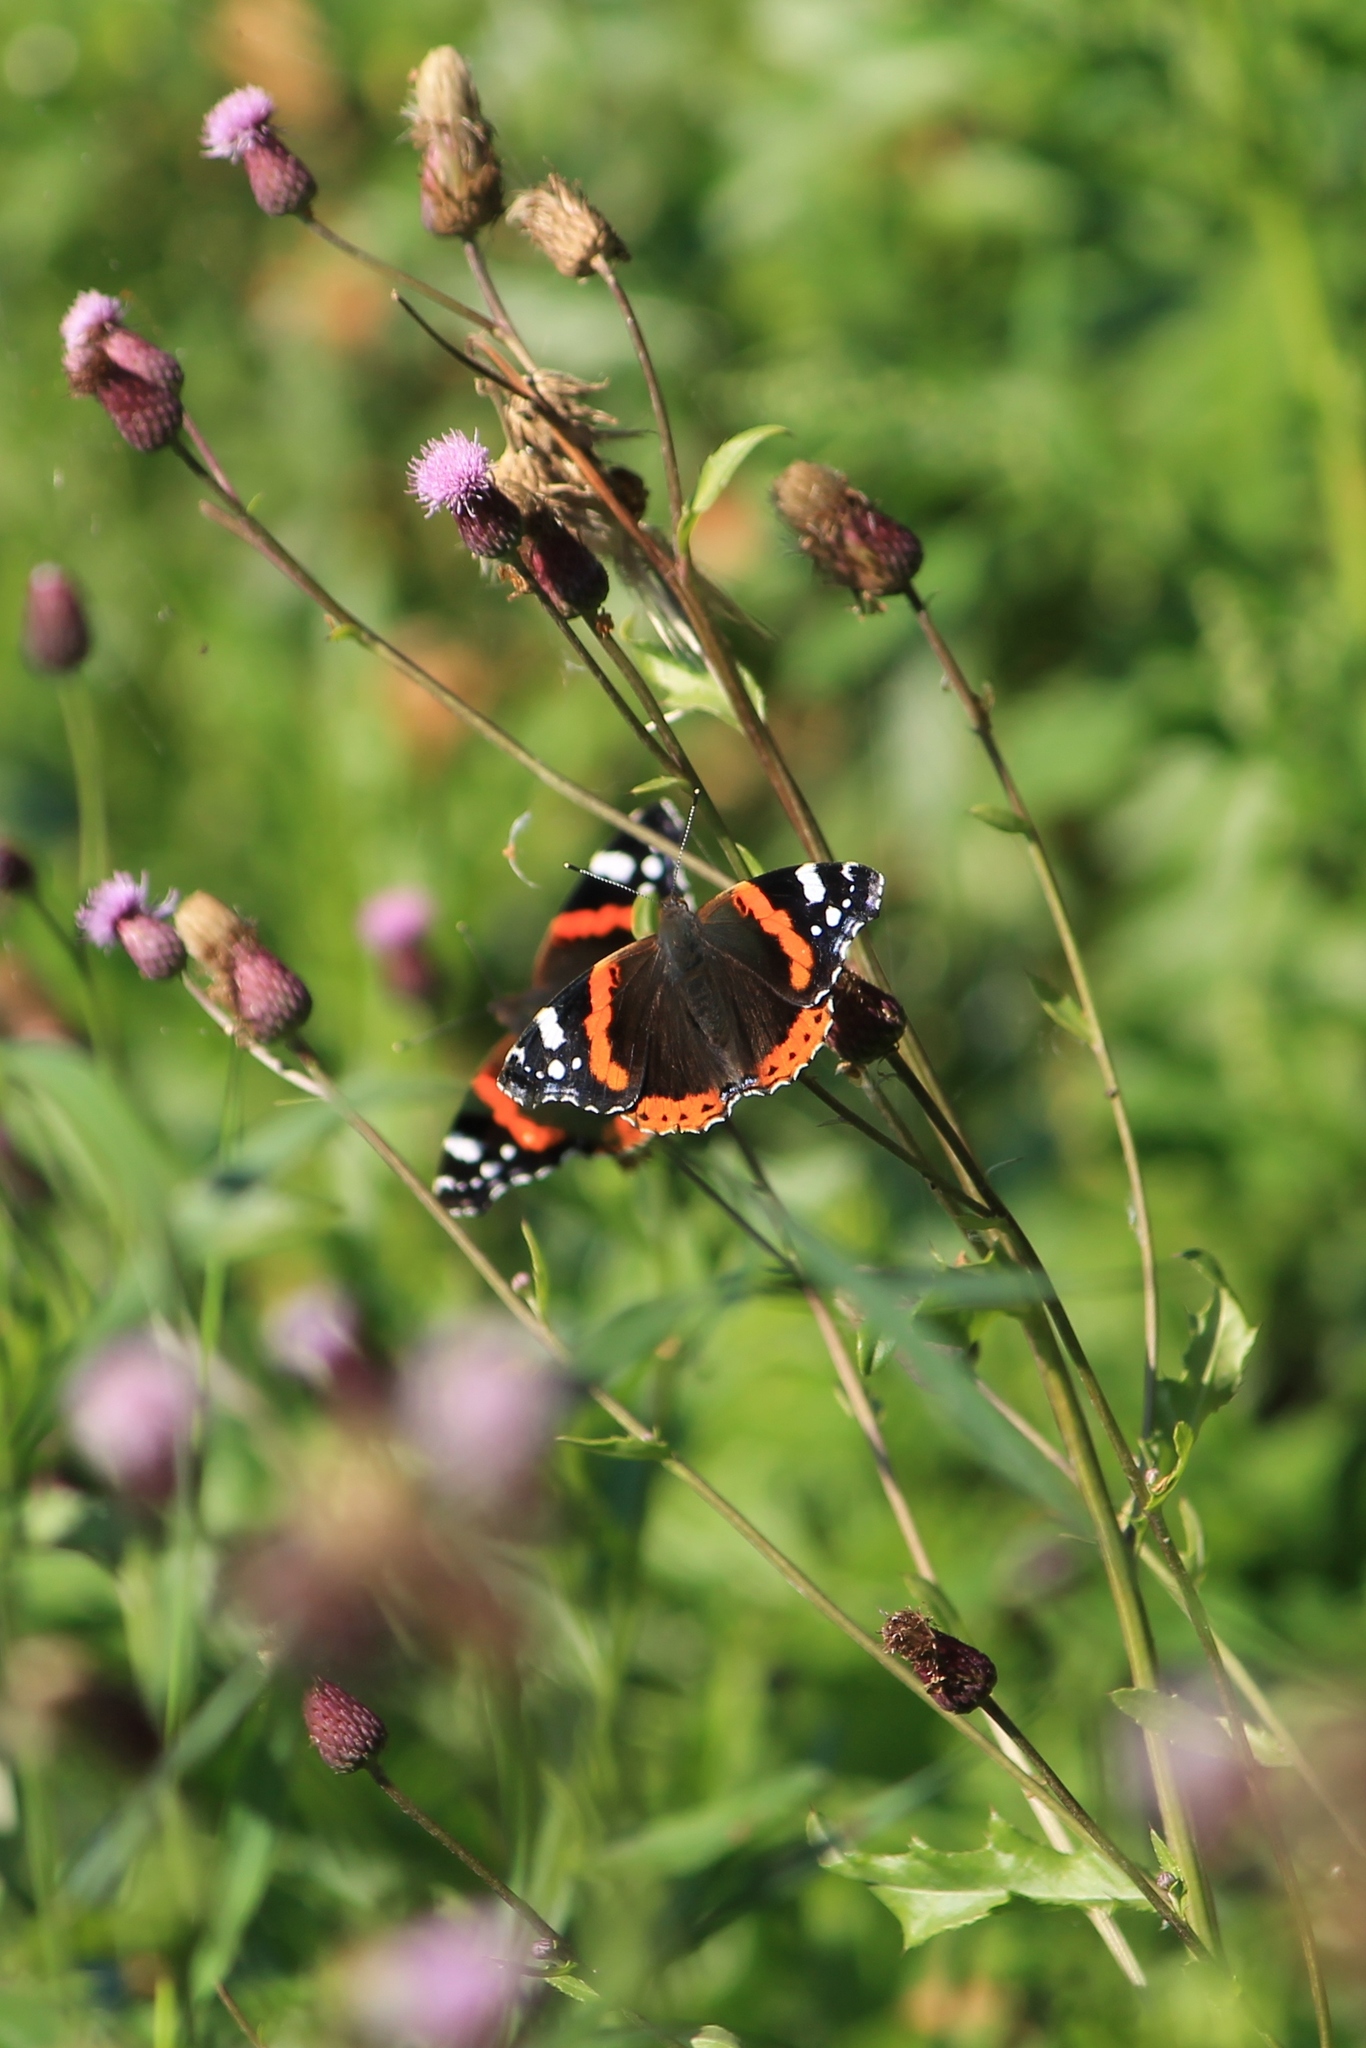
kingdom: Animalia
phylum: Arthropoda
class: Insecta
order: Lepidoptera
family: Nymphalidae
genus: Vanessa
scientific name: Vanessa atalanta
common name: Red admiral
